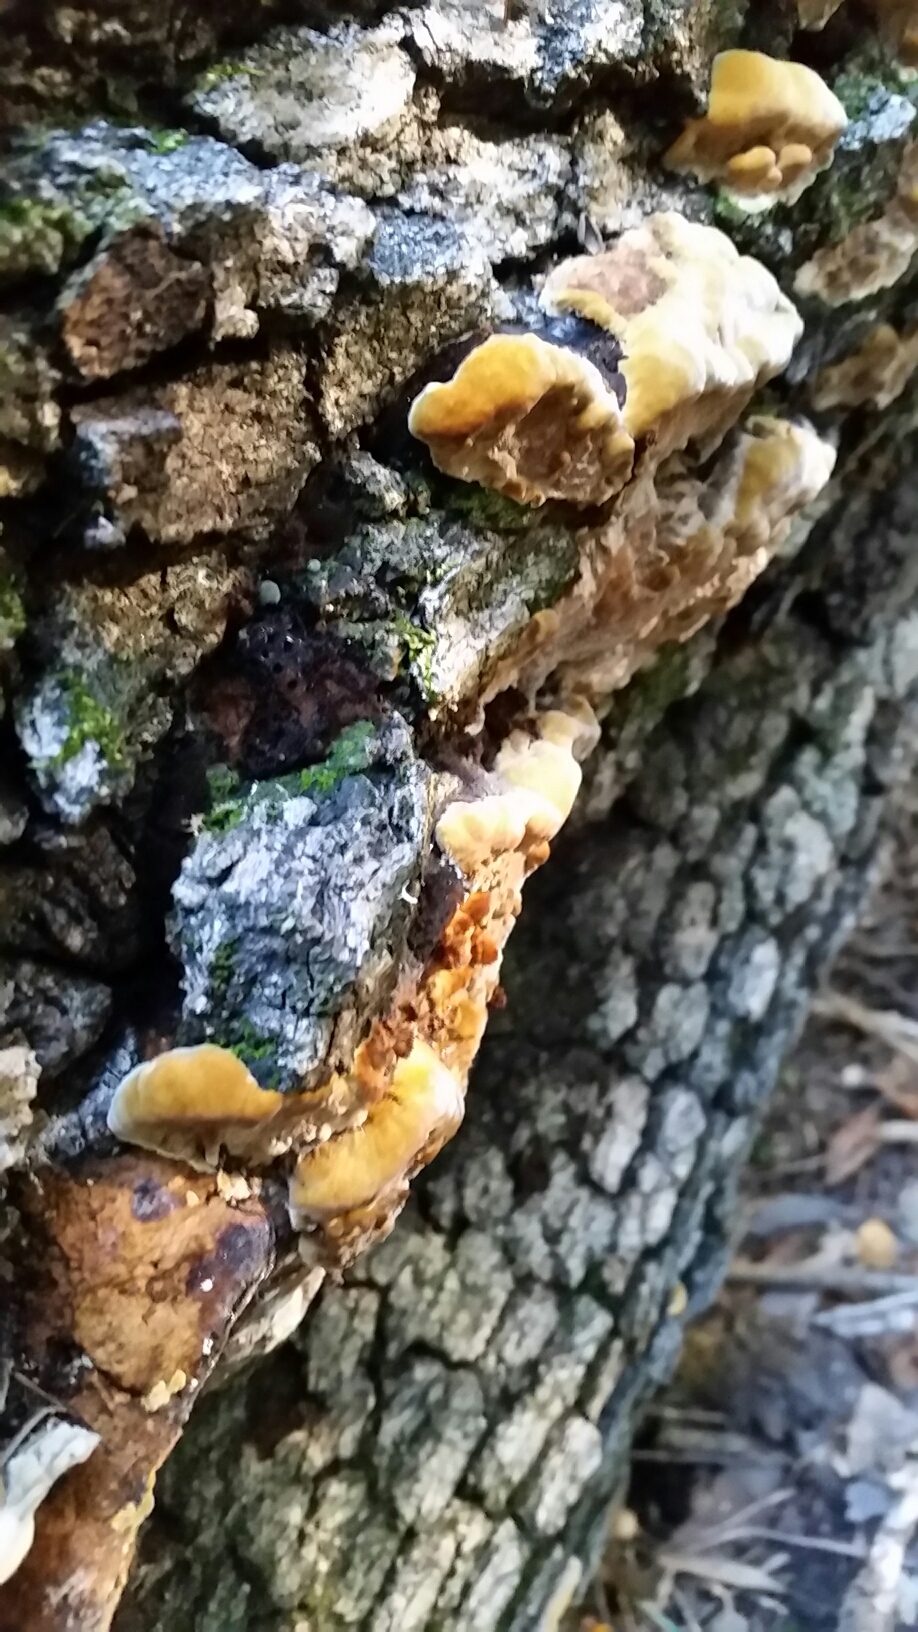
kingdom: Fungi
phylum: Basidiomycota
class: Agaricomycetes
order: Hymenochaetales
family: Hymenochaetaceae
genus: Phellinus
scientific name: Phellinus gilvus
